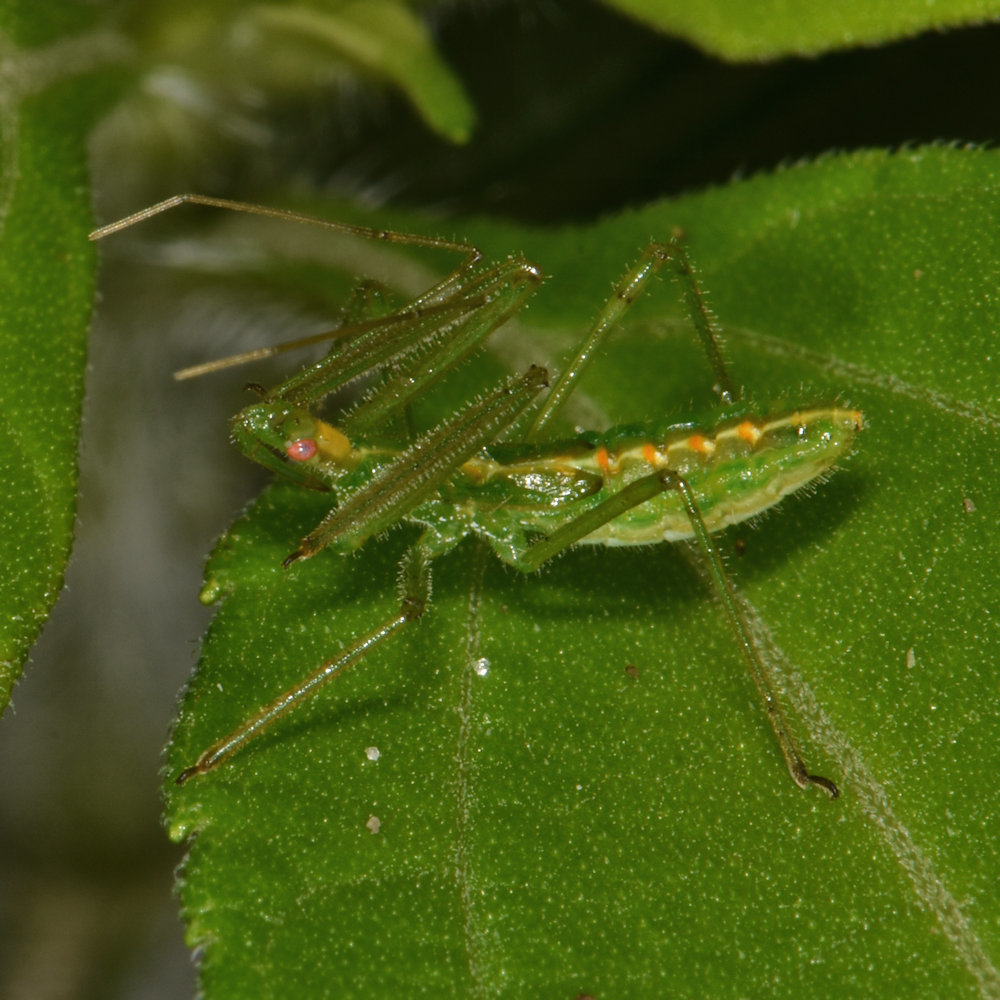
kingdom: Animalia
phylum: Arthropoda
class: Insecta
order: Hemiptera
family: Reduviidae
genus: Zelus
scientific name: Zelus luridus
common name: Pale green assassin bug
